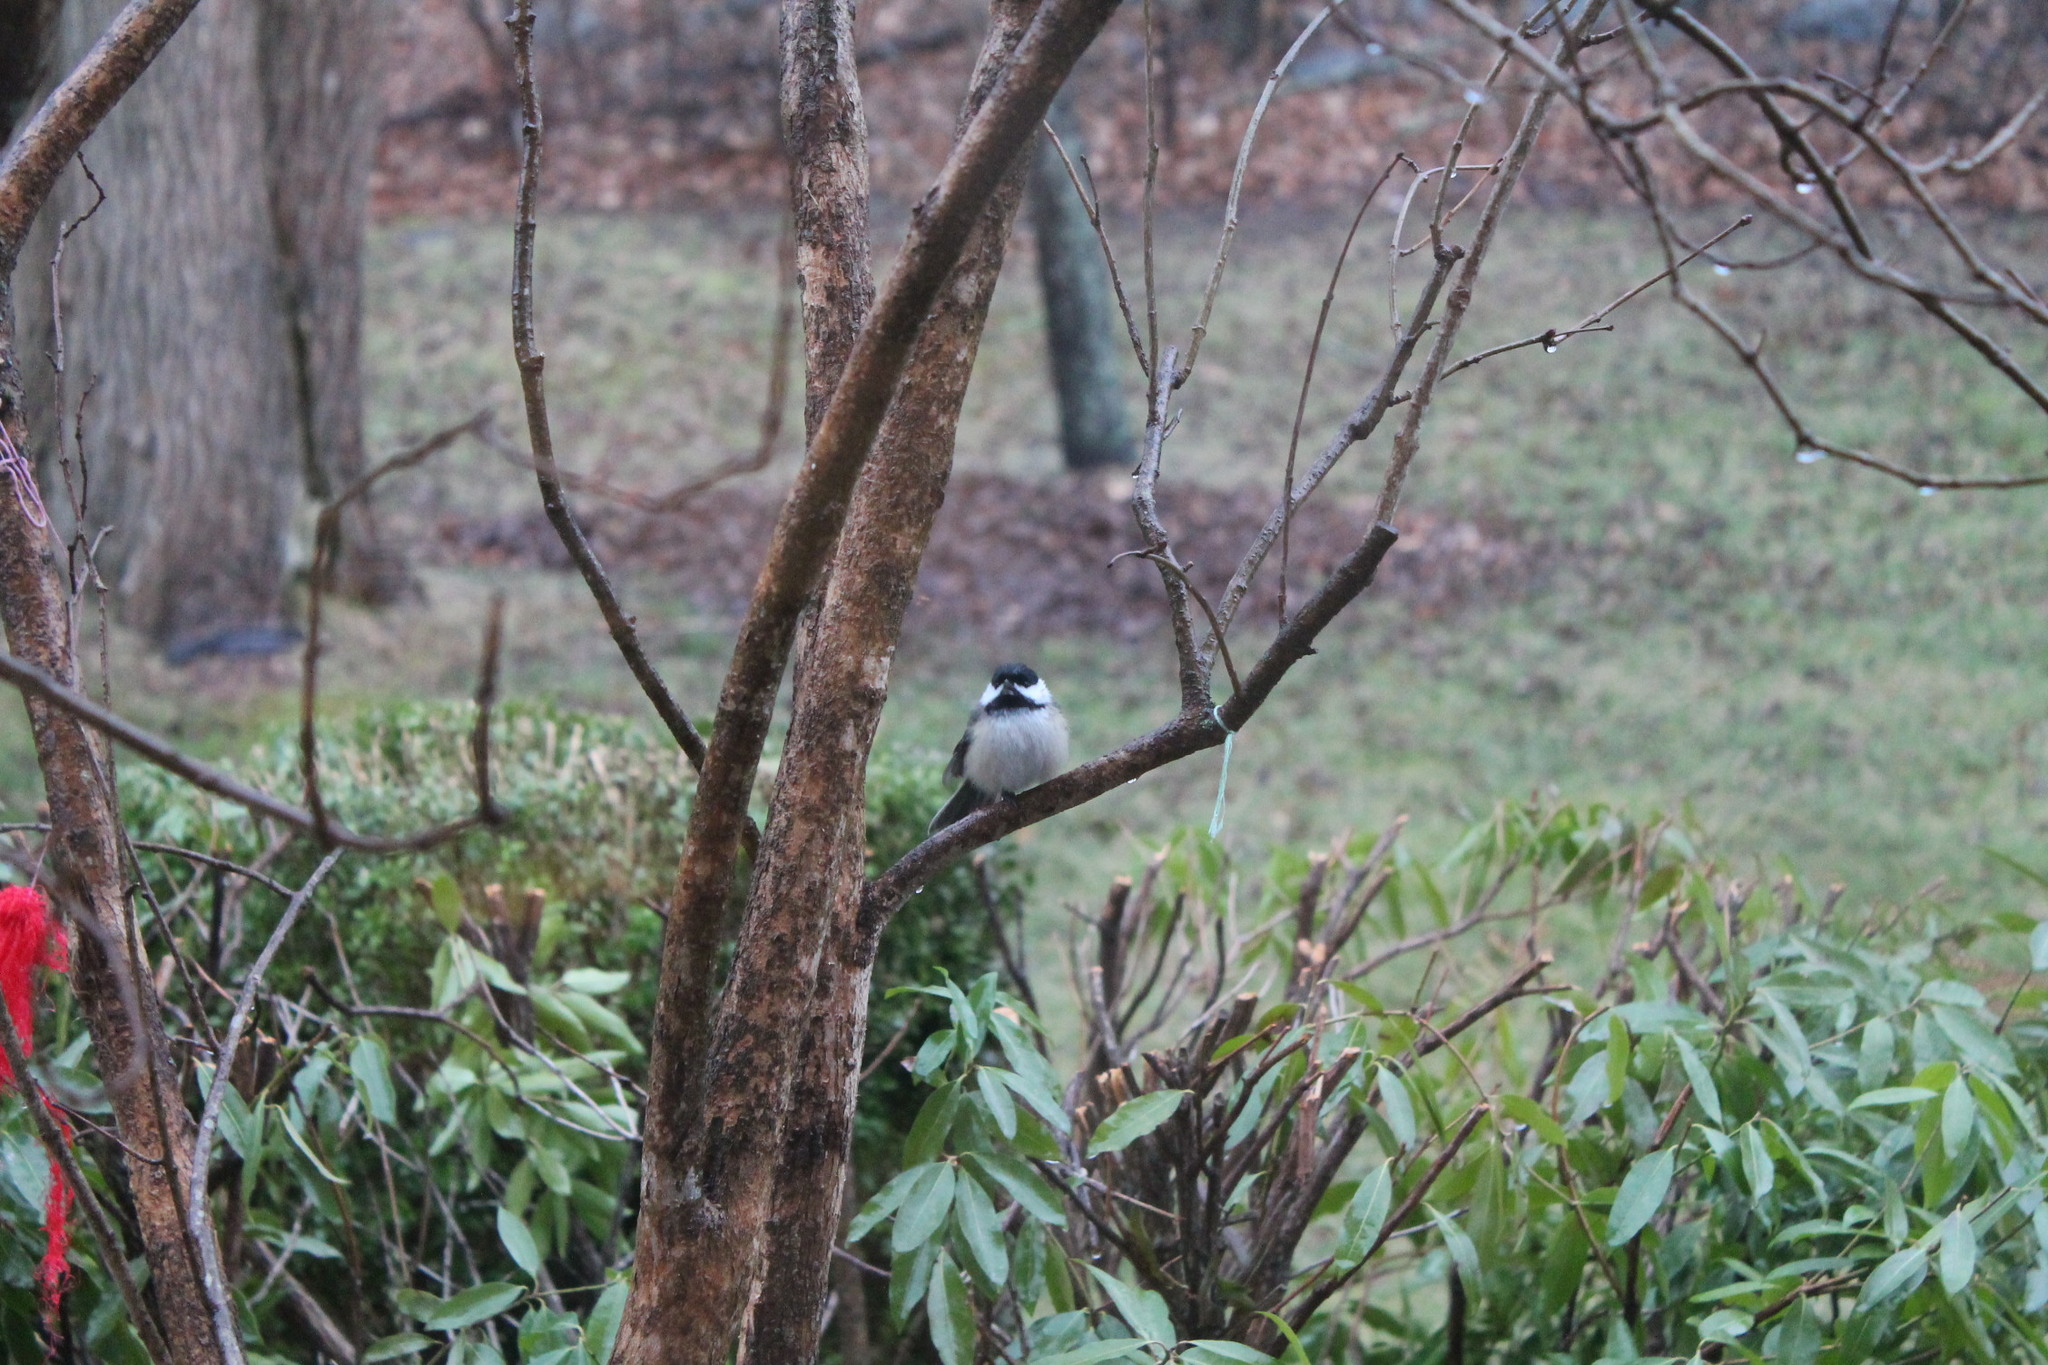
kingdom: Animalia
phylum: Chordata
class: Aves
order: Passeriformes
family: Paridae
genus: Poecile
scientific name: Poecile atricapillus
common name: Black-capped chickadee
